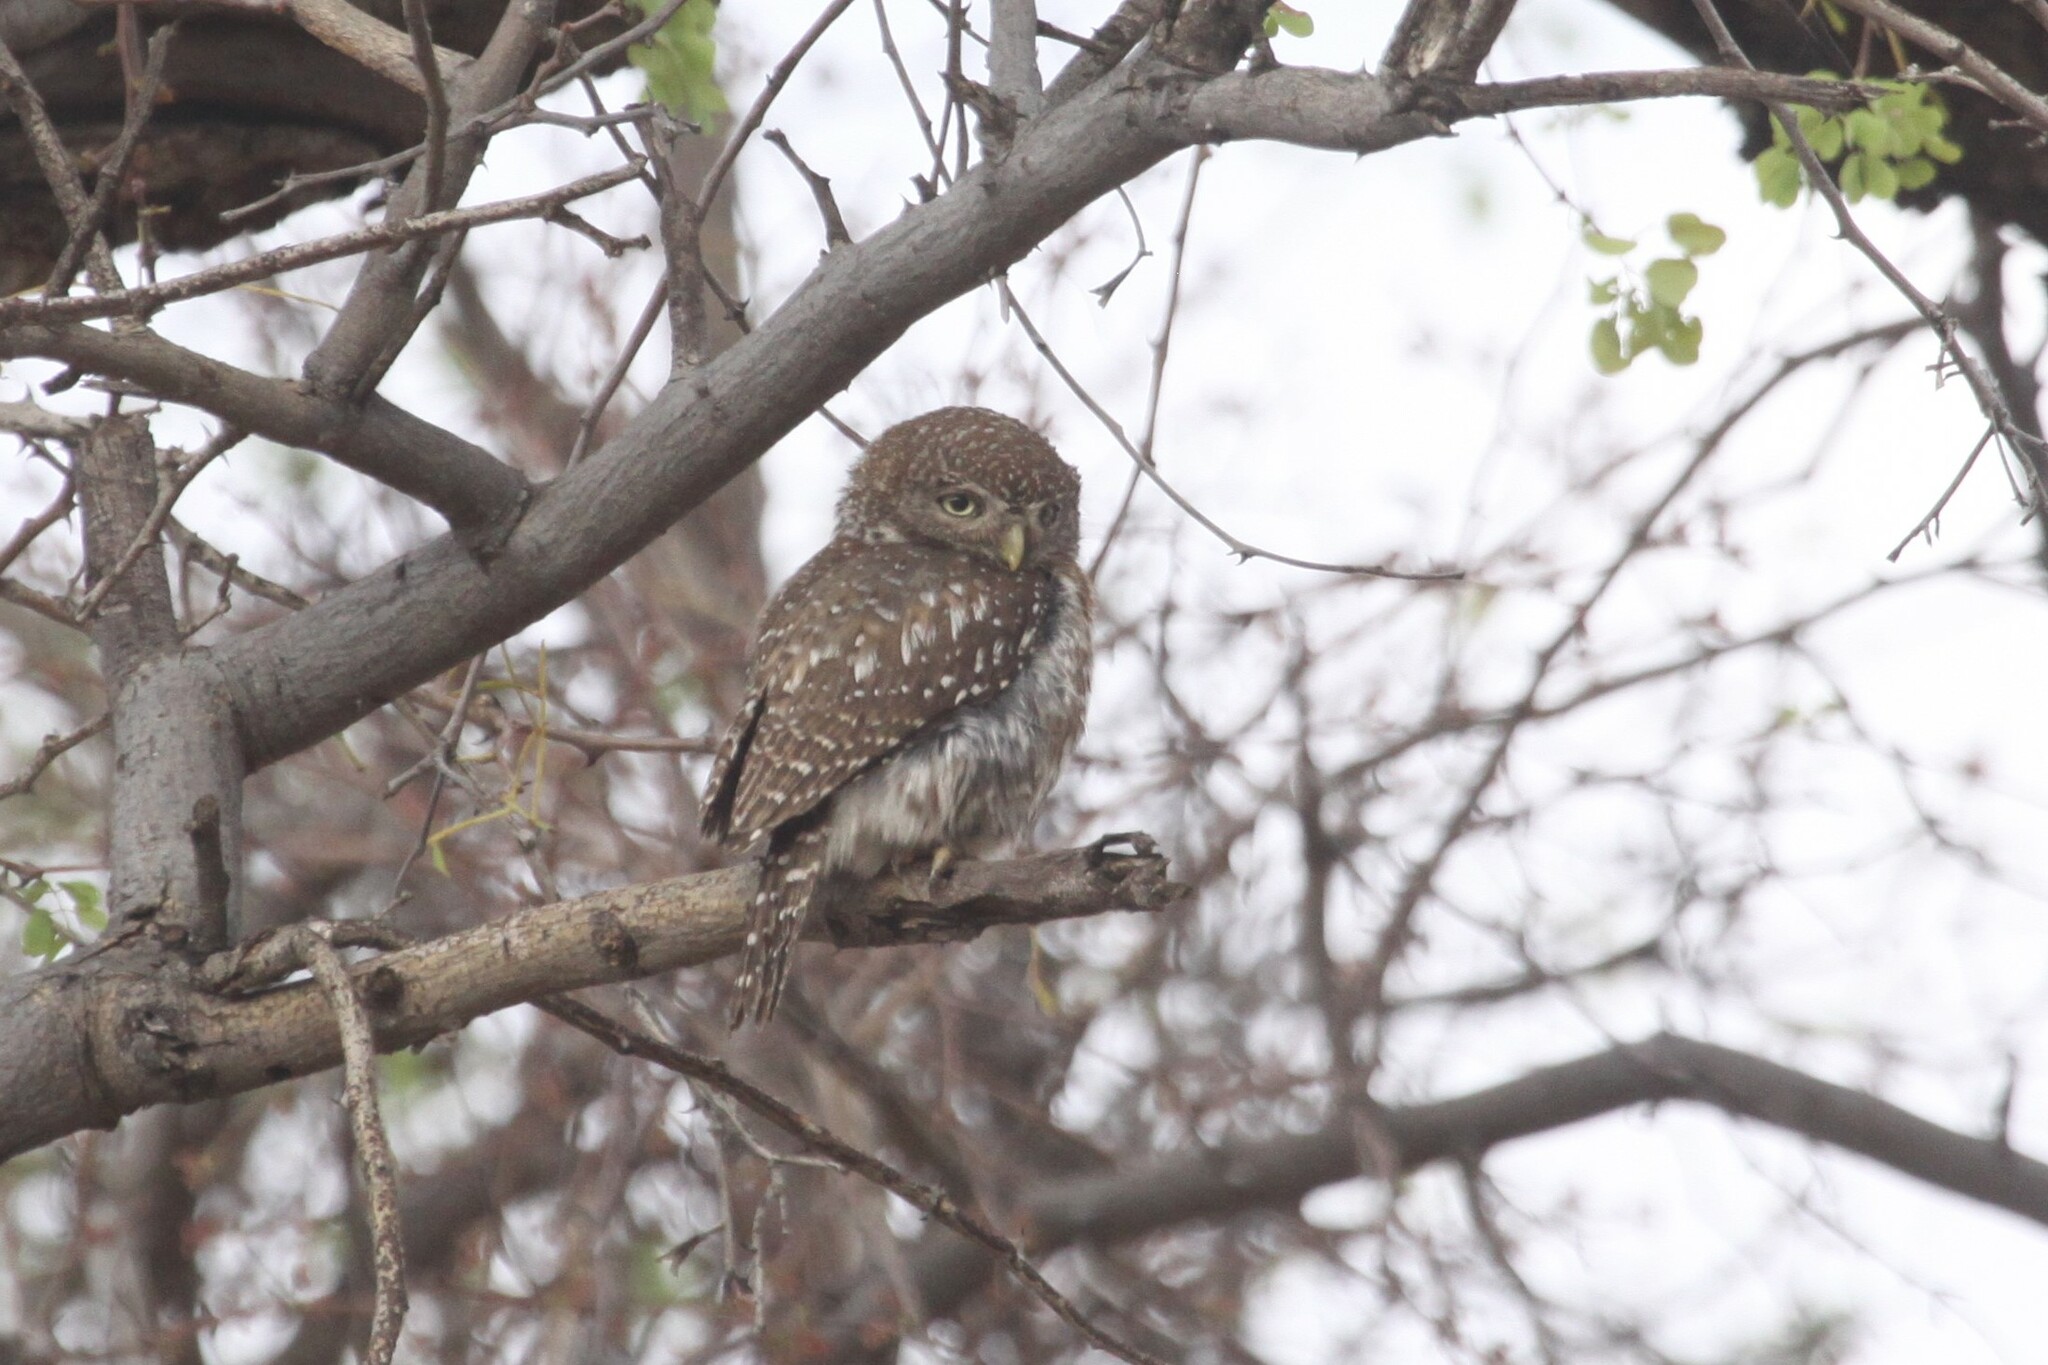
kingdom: Animalia
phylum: Chordata
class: Aves
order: Strigiformes
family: Strigidae
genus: Glaucidium
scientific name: Glaucidium perlatum
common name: Pearl-spotted owlet
